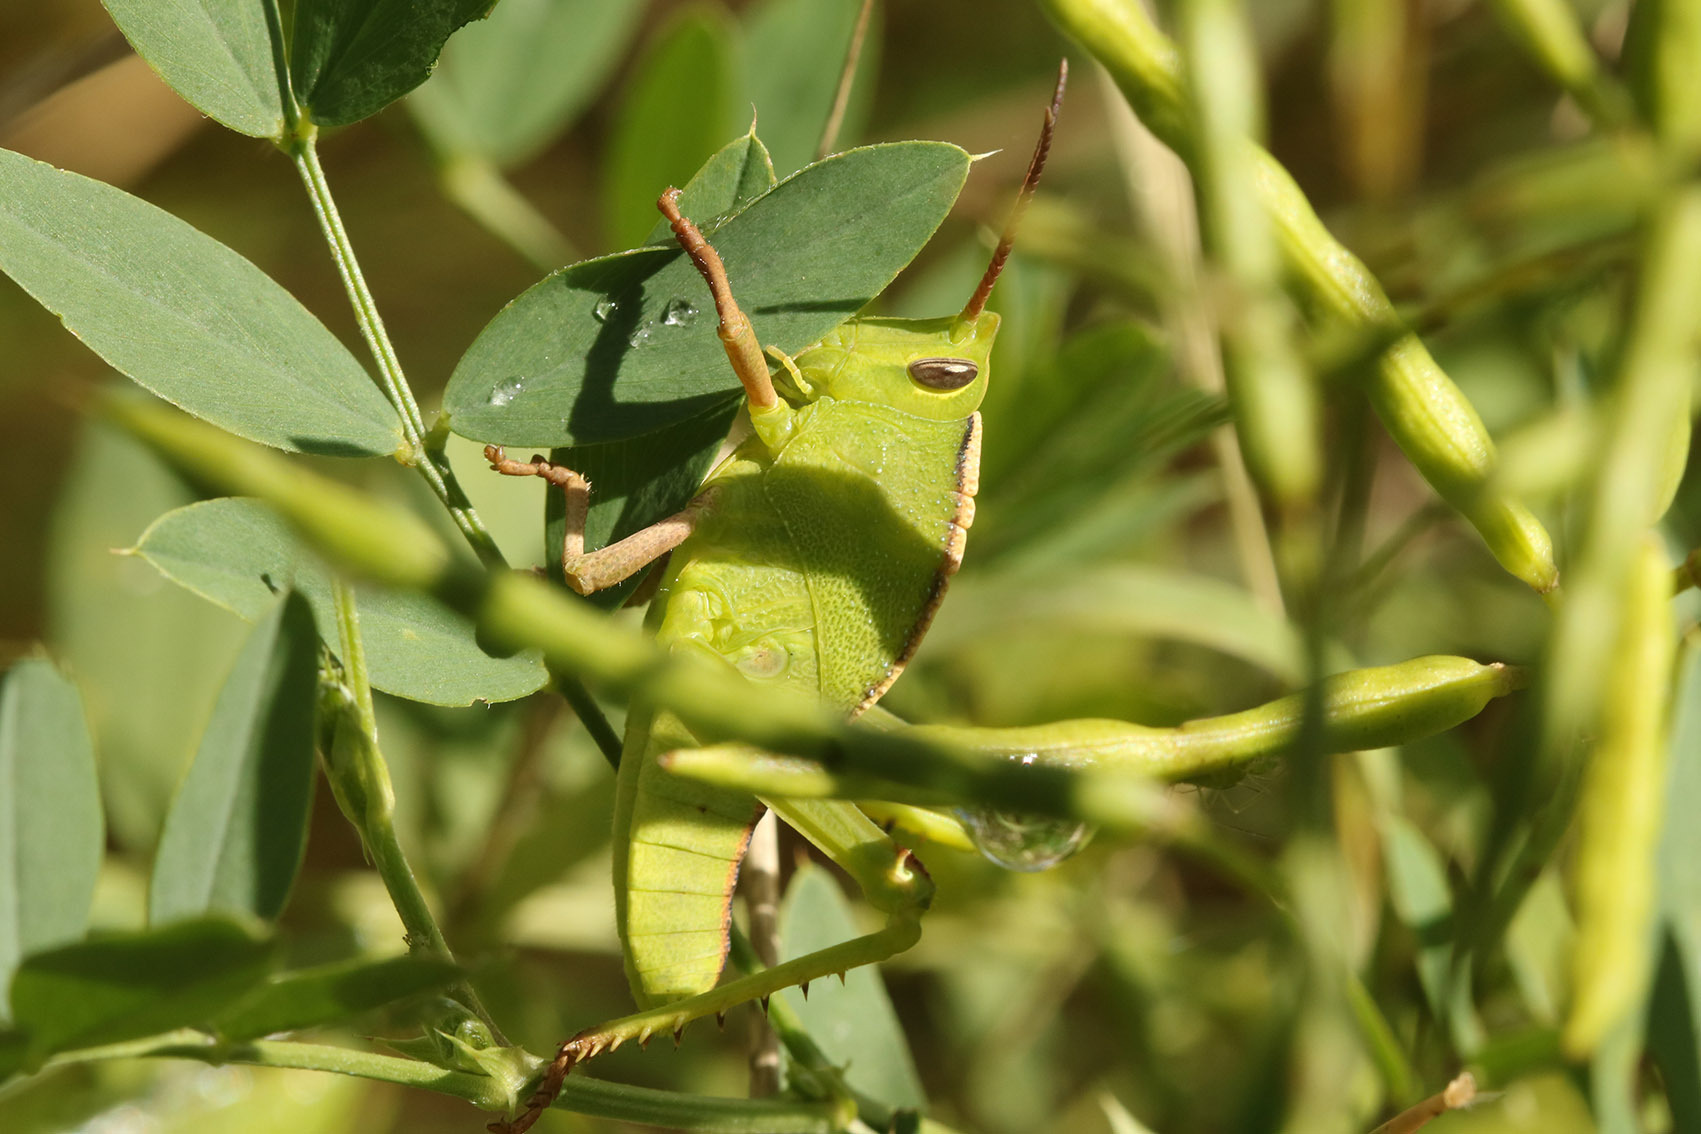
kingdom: Animalia
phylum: Arthropoda
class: Insecta
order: Orthoptera
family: Romaleidae
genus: Staleochlora
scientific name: Staleochlora viridicata
